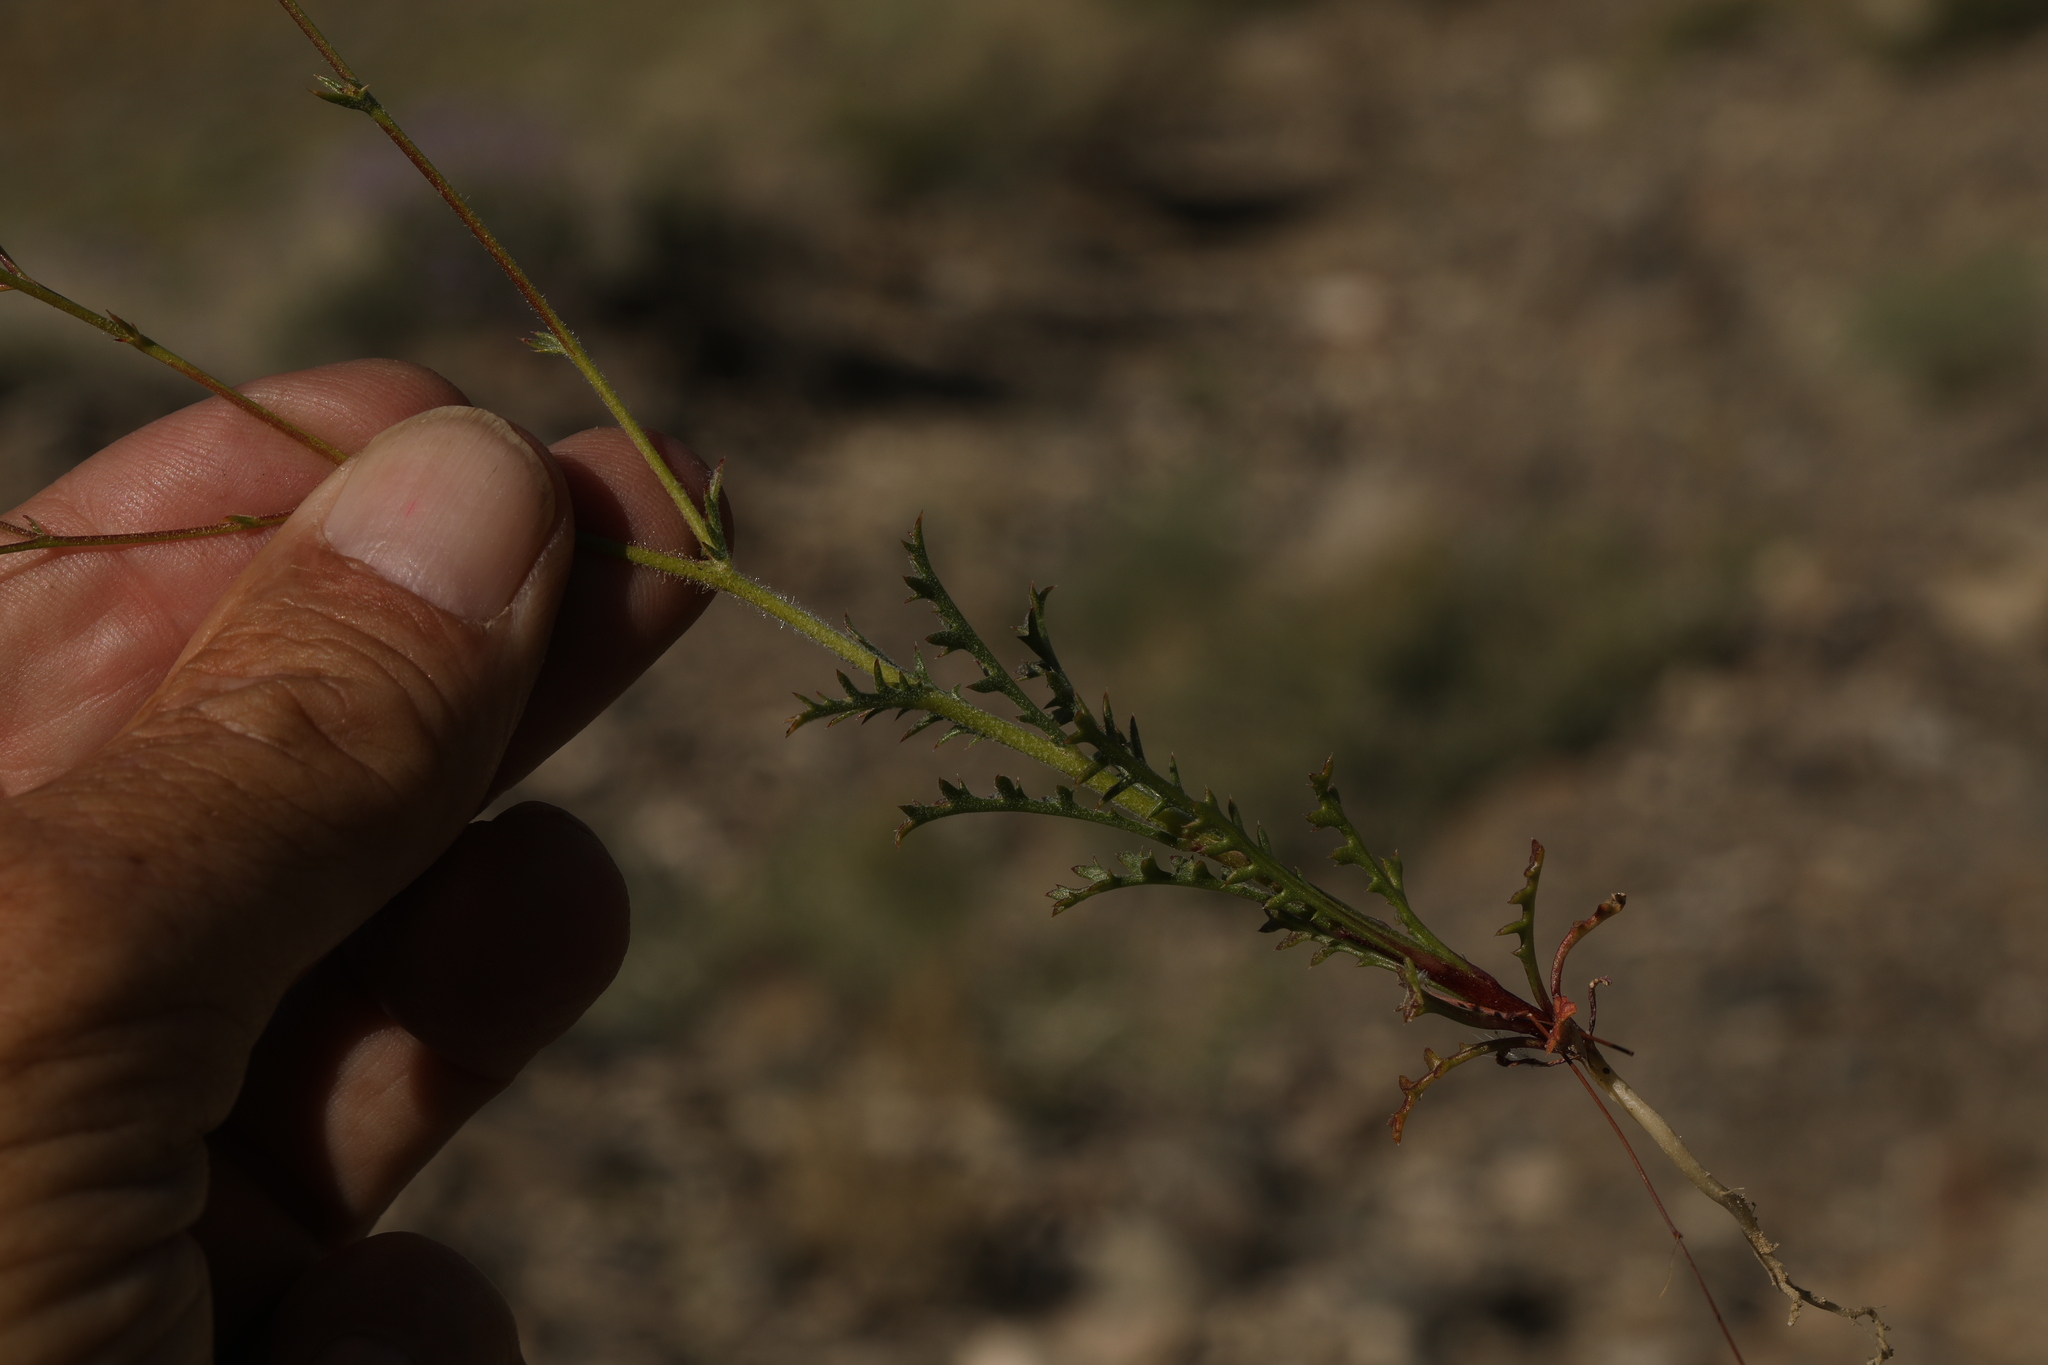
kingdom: Plantae
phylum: Tracheophyta
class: Magnoliopsida
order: Ericales
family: Polemoniaceae
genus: Gilia
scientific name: Gilia cana
